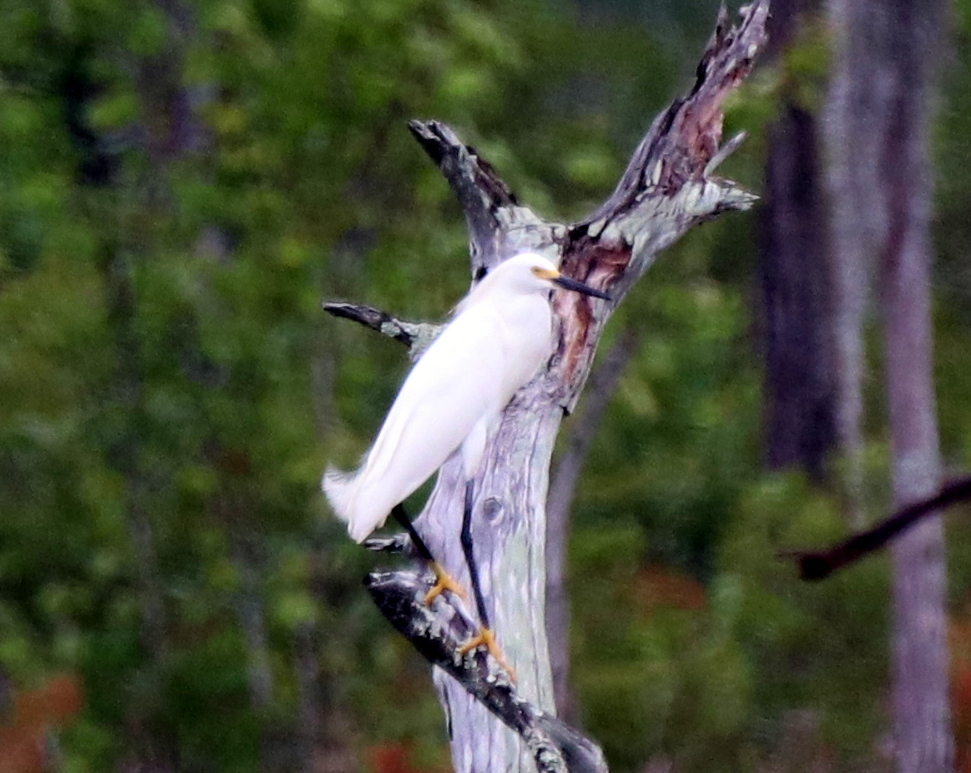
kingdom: Animalia
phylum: Chordata
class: Aves
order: Pelecaniformes
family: Ardeidae
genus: Egretta
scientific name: Egretta thula
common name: Snowy egret
